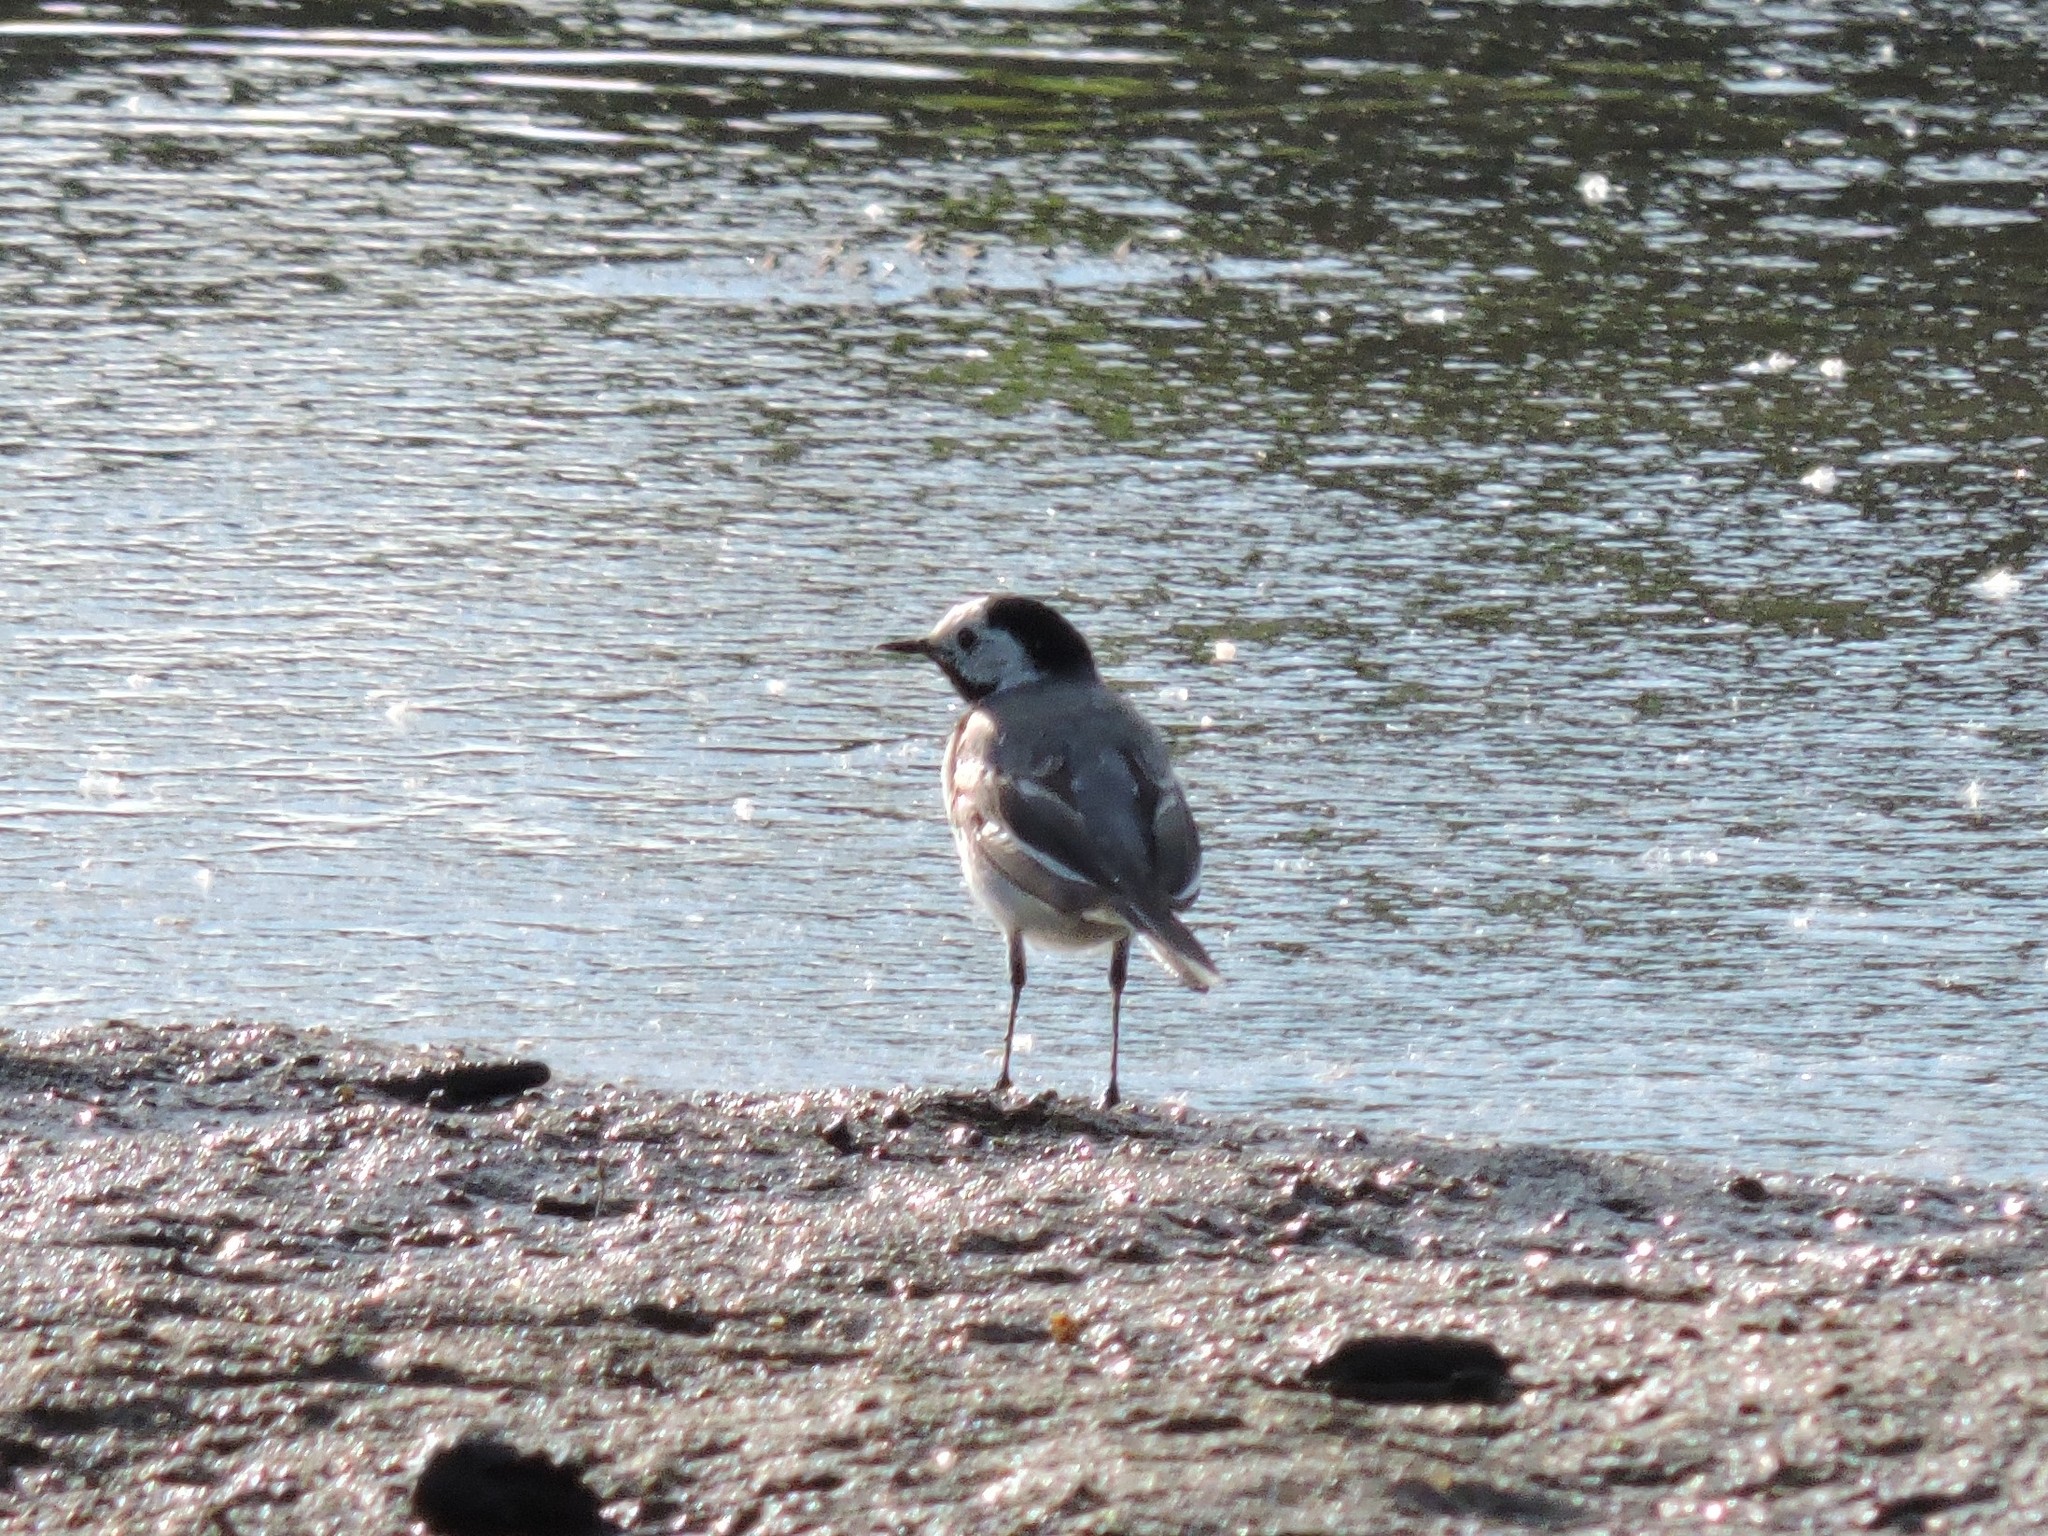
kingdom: Animalia
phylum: Chordata
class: Aves
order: Passeriformes
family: Motacillidae
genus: Motacilla
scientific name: Motacilla alba
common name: White wagtail
